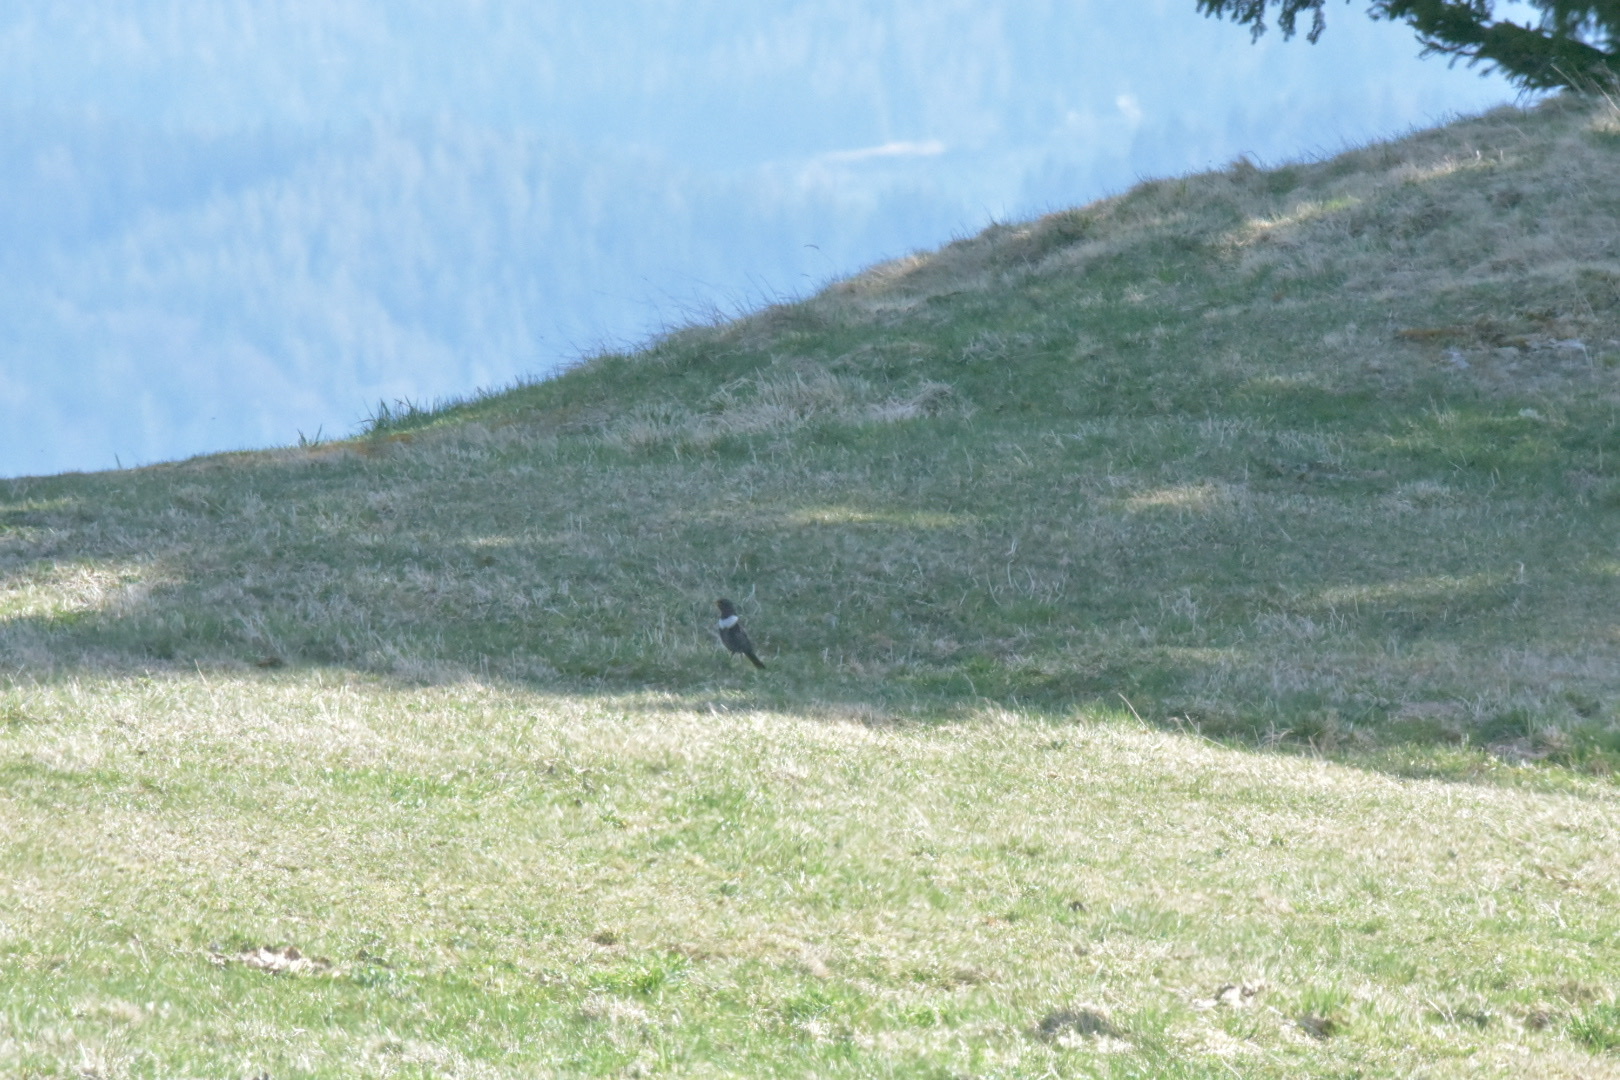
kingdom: Animalia
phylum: Chordata
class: Aves
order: Passeriformes
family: Turdidae
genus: Turdus
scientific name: Turdus torquatus
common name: Ring ouzel
